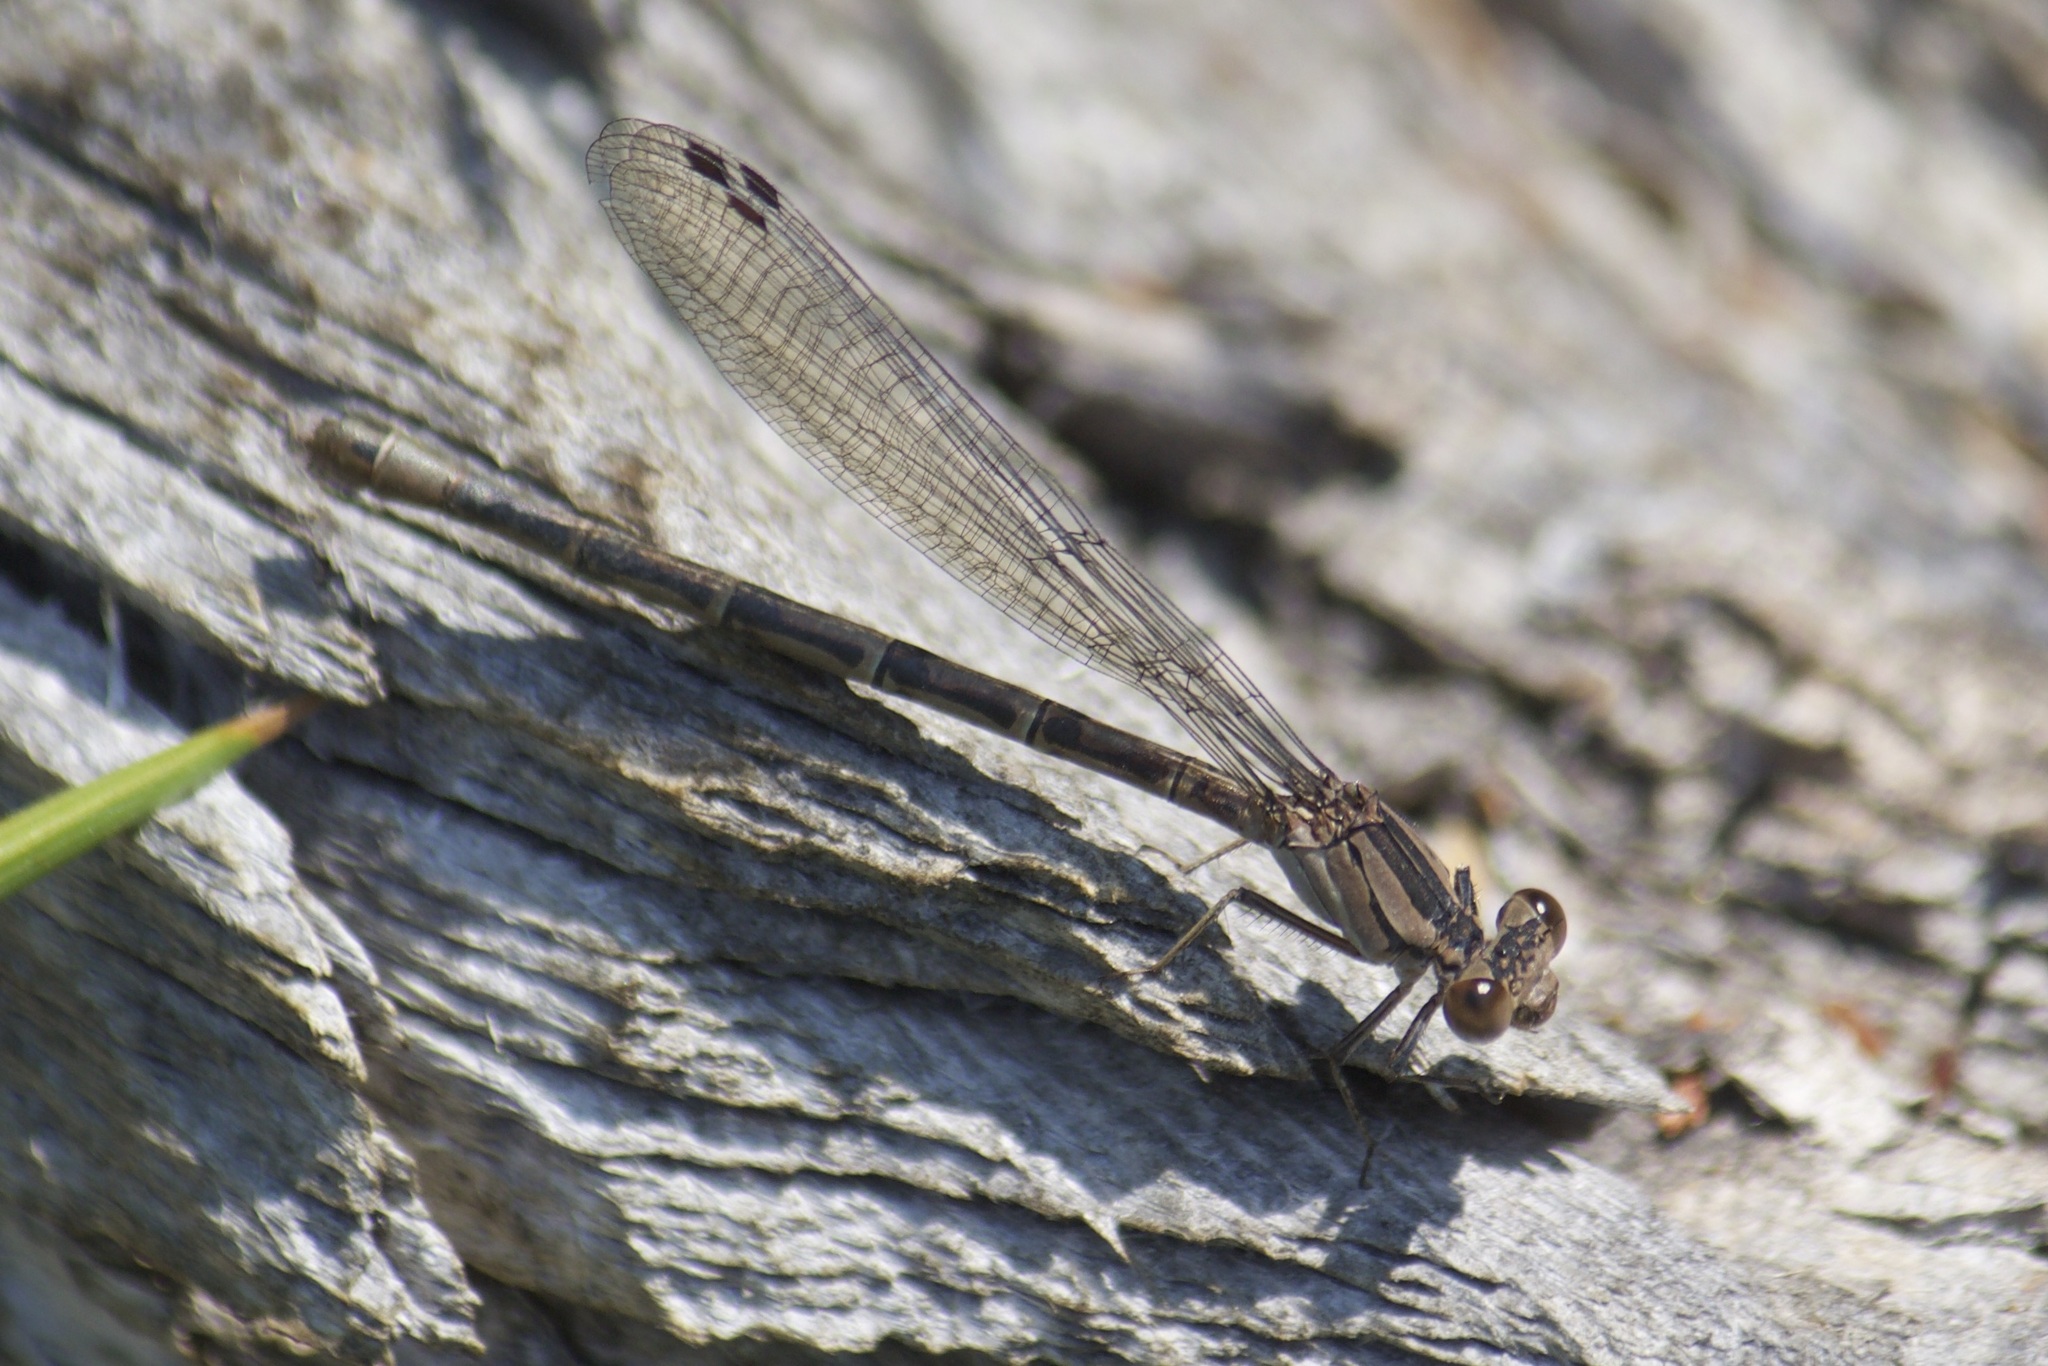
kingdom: Animalia
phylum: Arthropoda
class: Insecta
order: Odonata
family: Coenagrionidae
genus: Argia
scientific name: Argia vivida
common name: Vivid dancer
